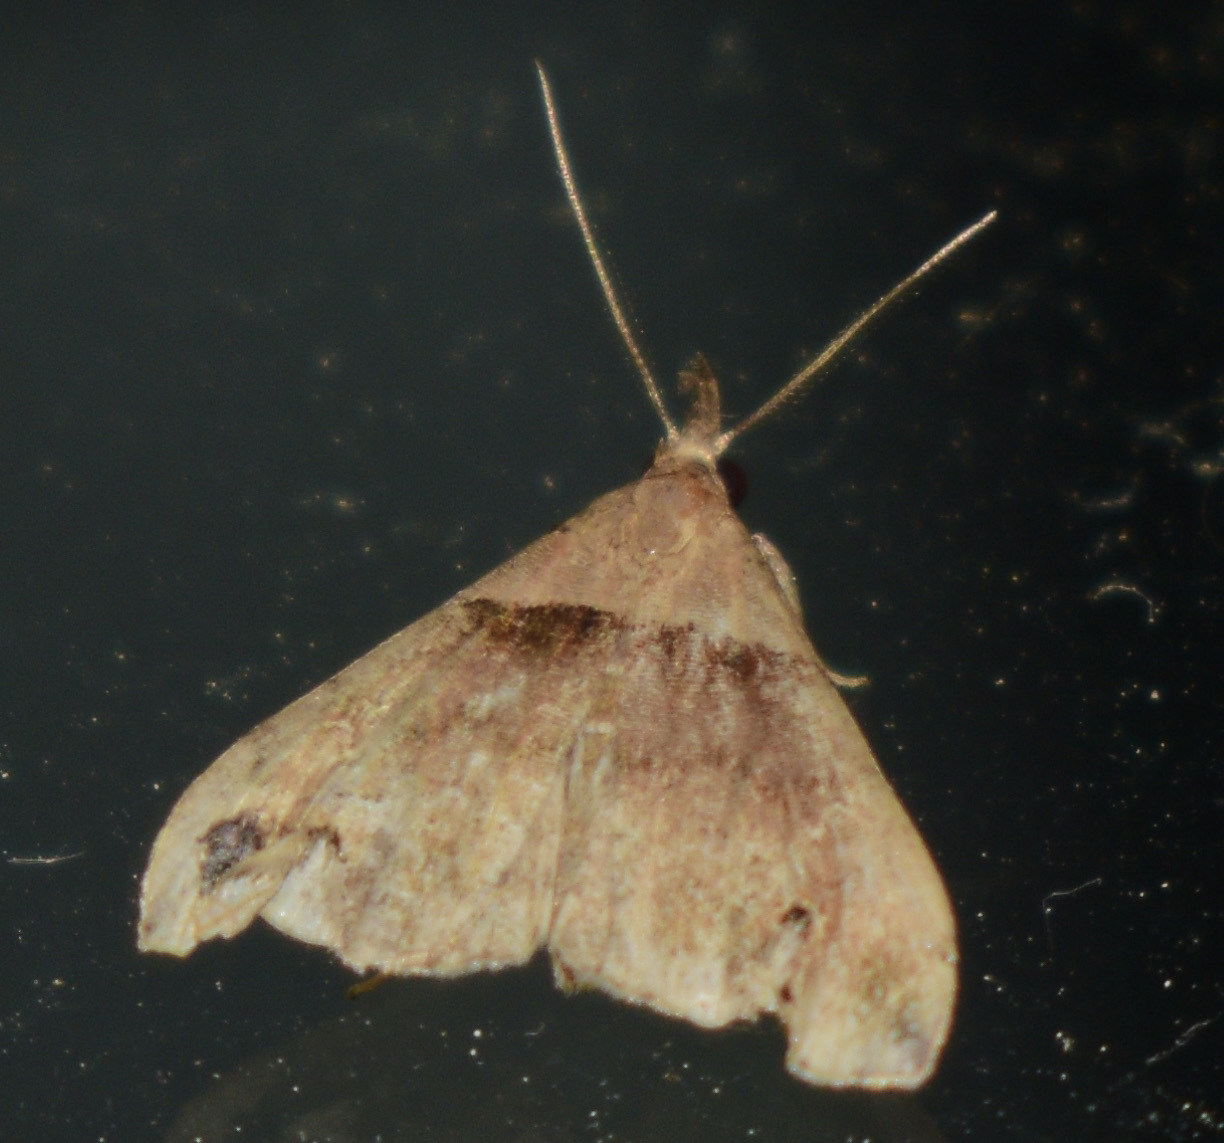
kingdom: Animalia
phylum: Arthropoda
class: Insecta
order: Lepidoptera
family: Erebidae
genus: Lascoria
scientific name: Lascoria ambigualis
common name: Ambiguous moth
